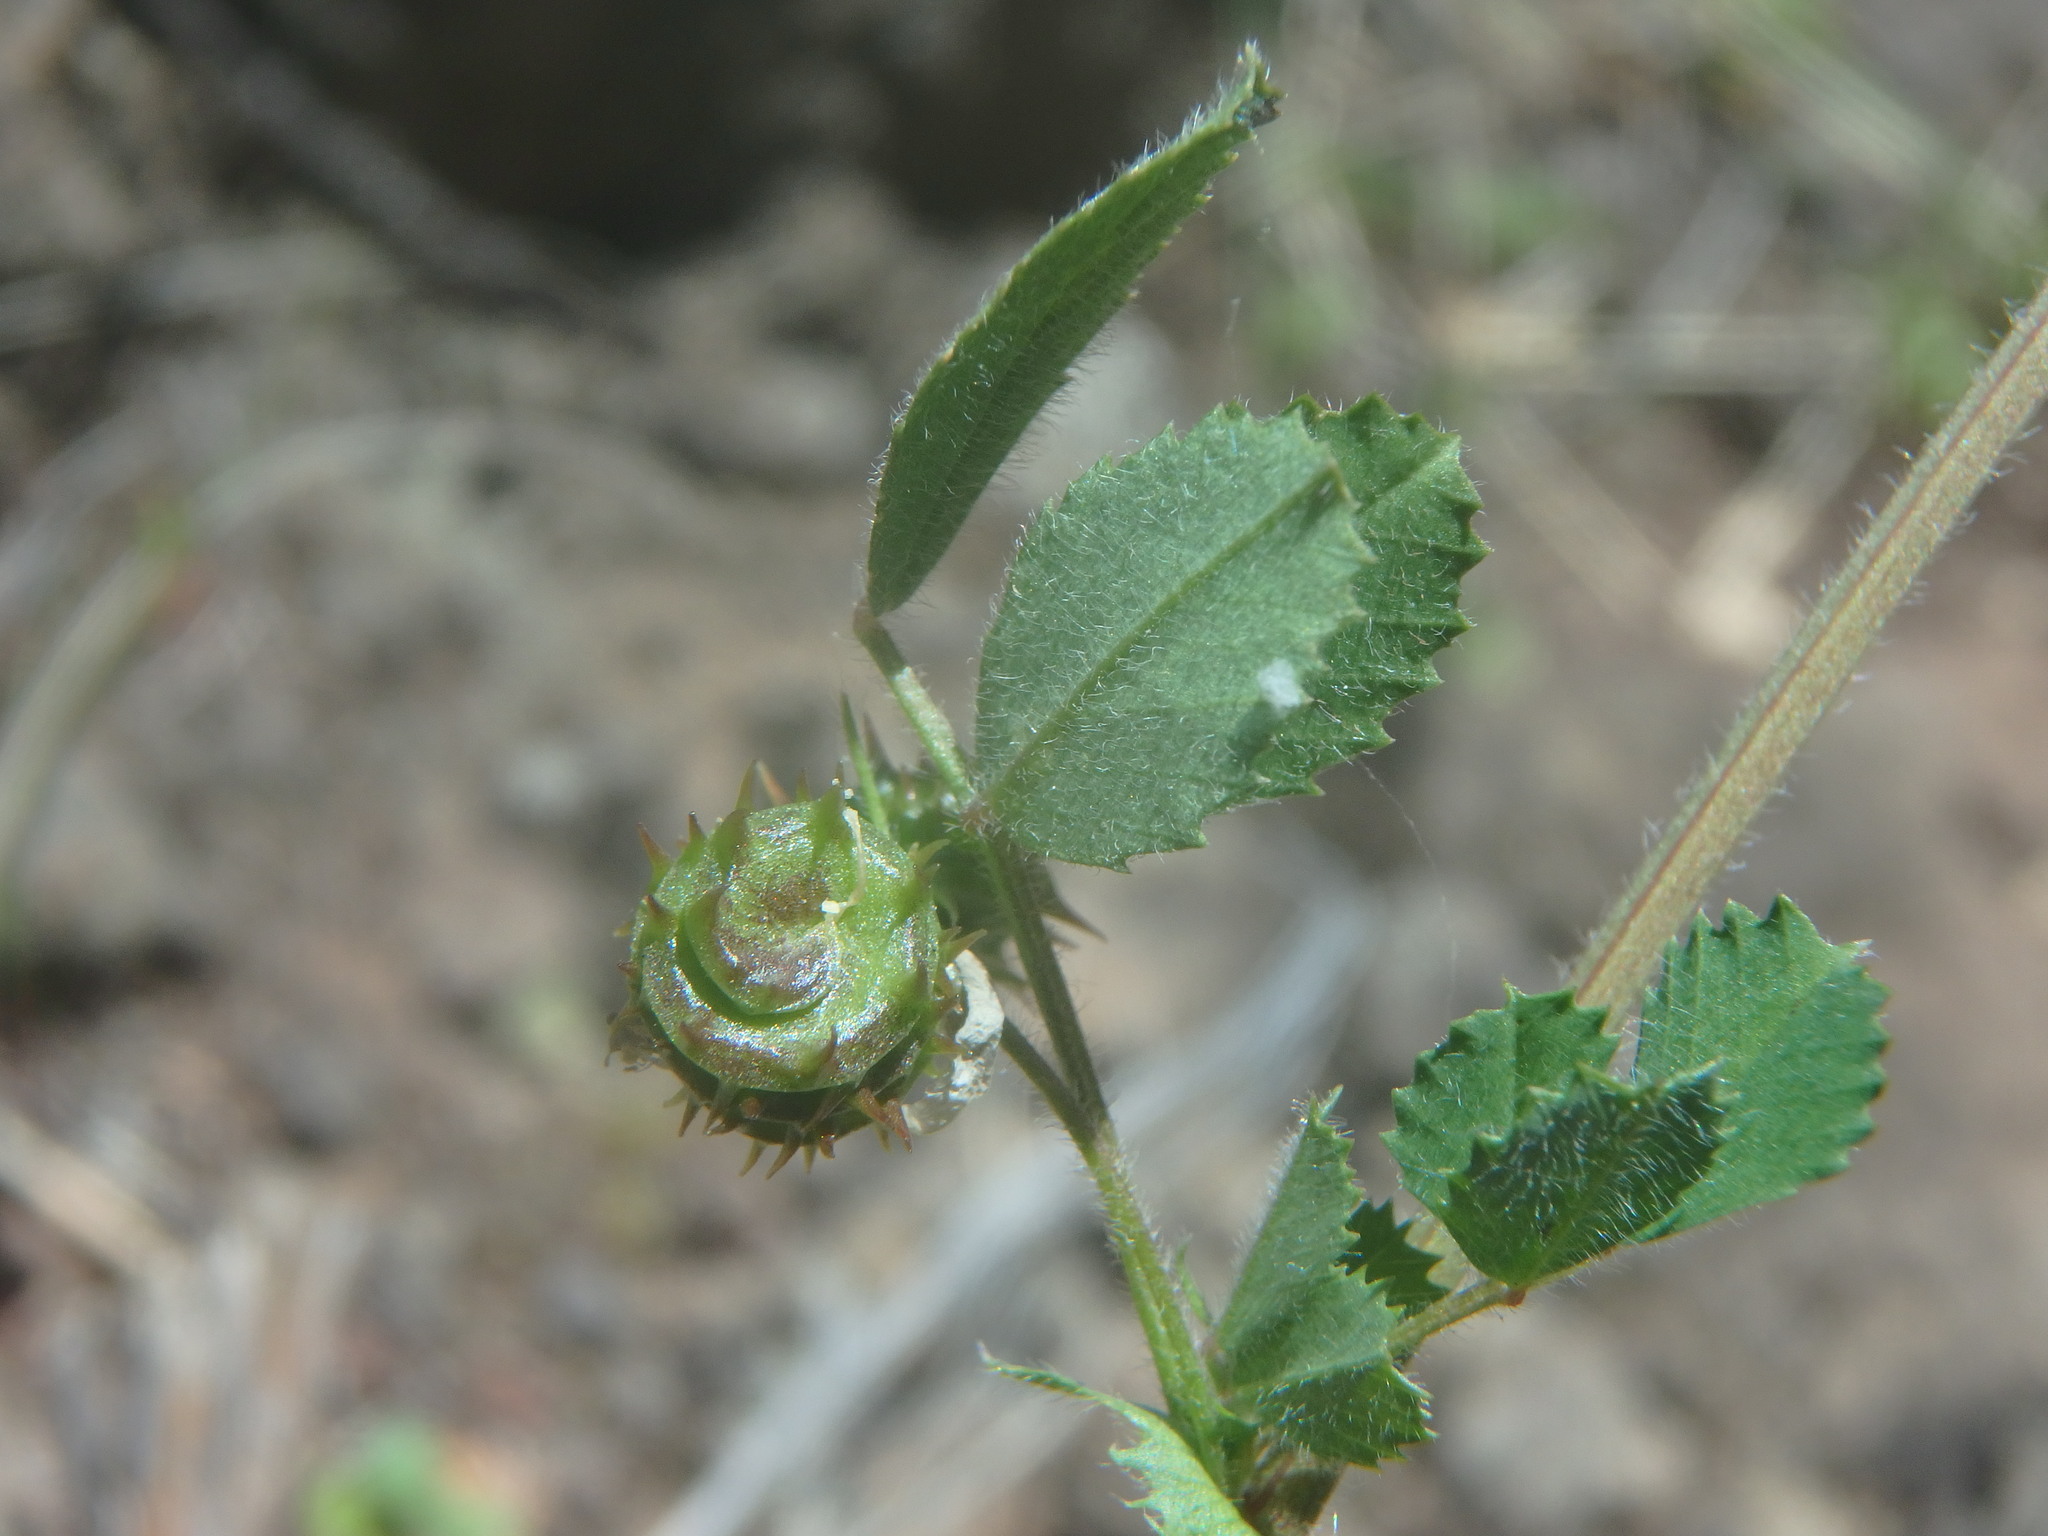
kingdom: Plantae
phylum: Tracheophyta
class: Magnoliopsida
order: Fabales
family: Fabaceae
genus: Medicago
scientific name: Medicago littoralis
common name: Shore medick
